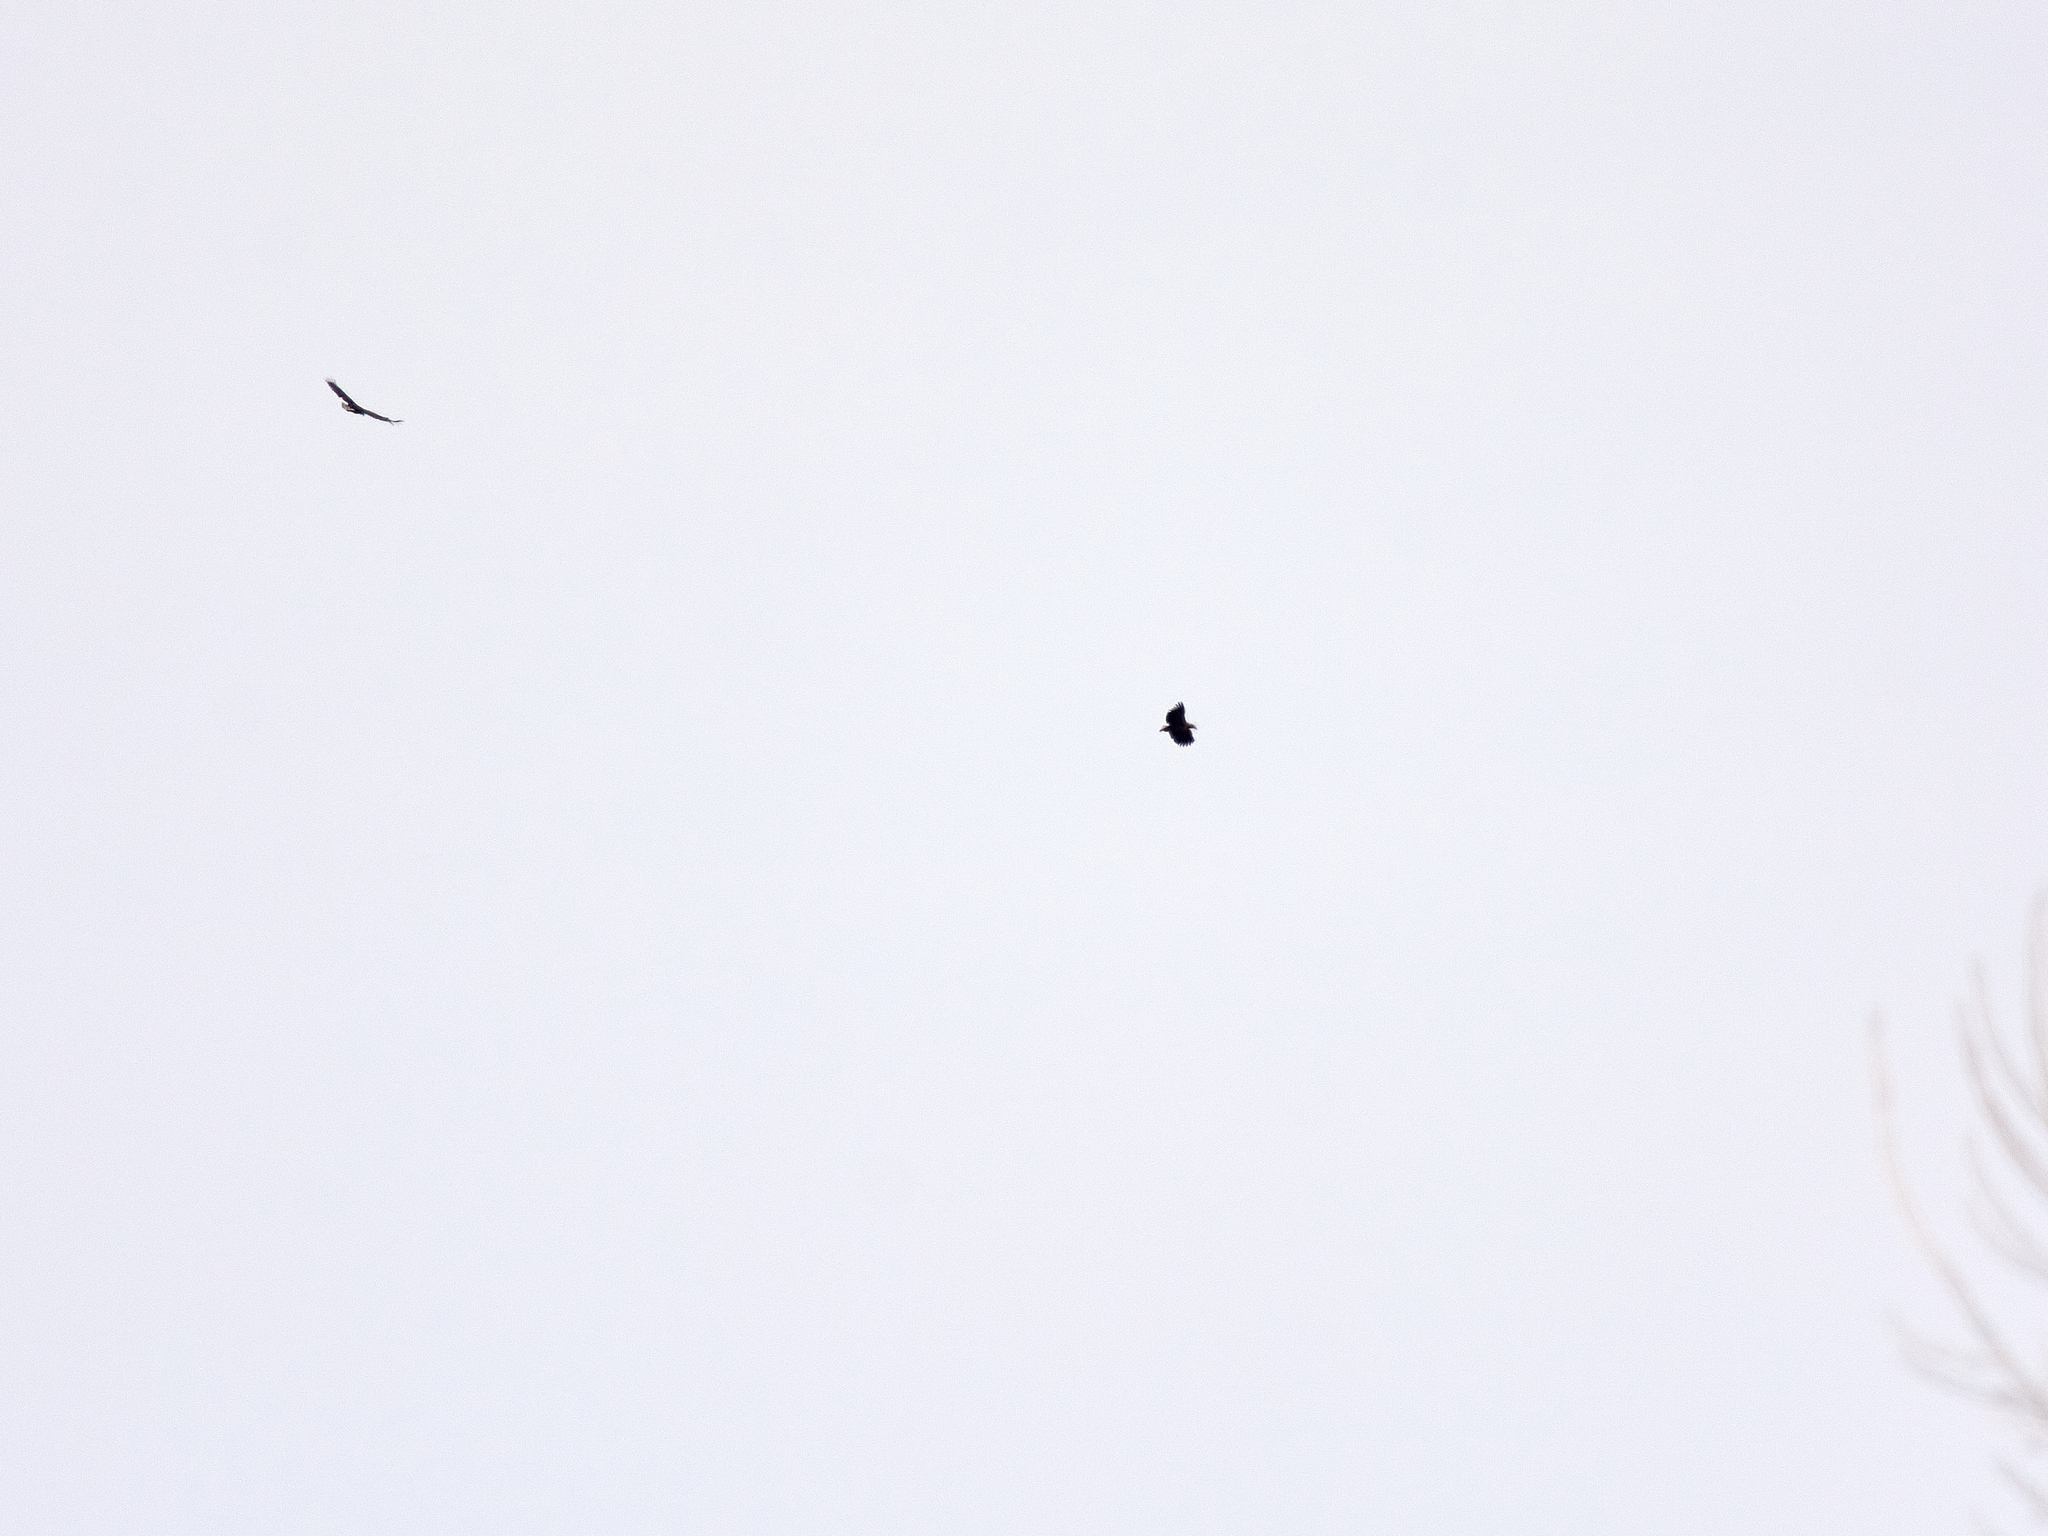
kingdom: Animalia
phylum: Chordata
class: Aves
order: Accipitriformes
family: Accipitridae
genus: Haliaeetus
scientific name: Haliaeetus albicilla
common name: White-tailed eagle
